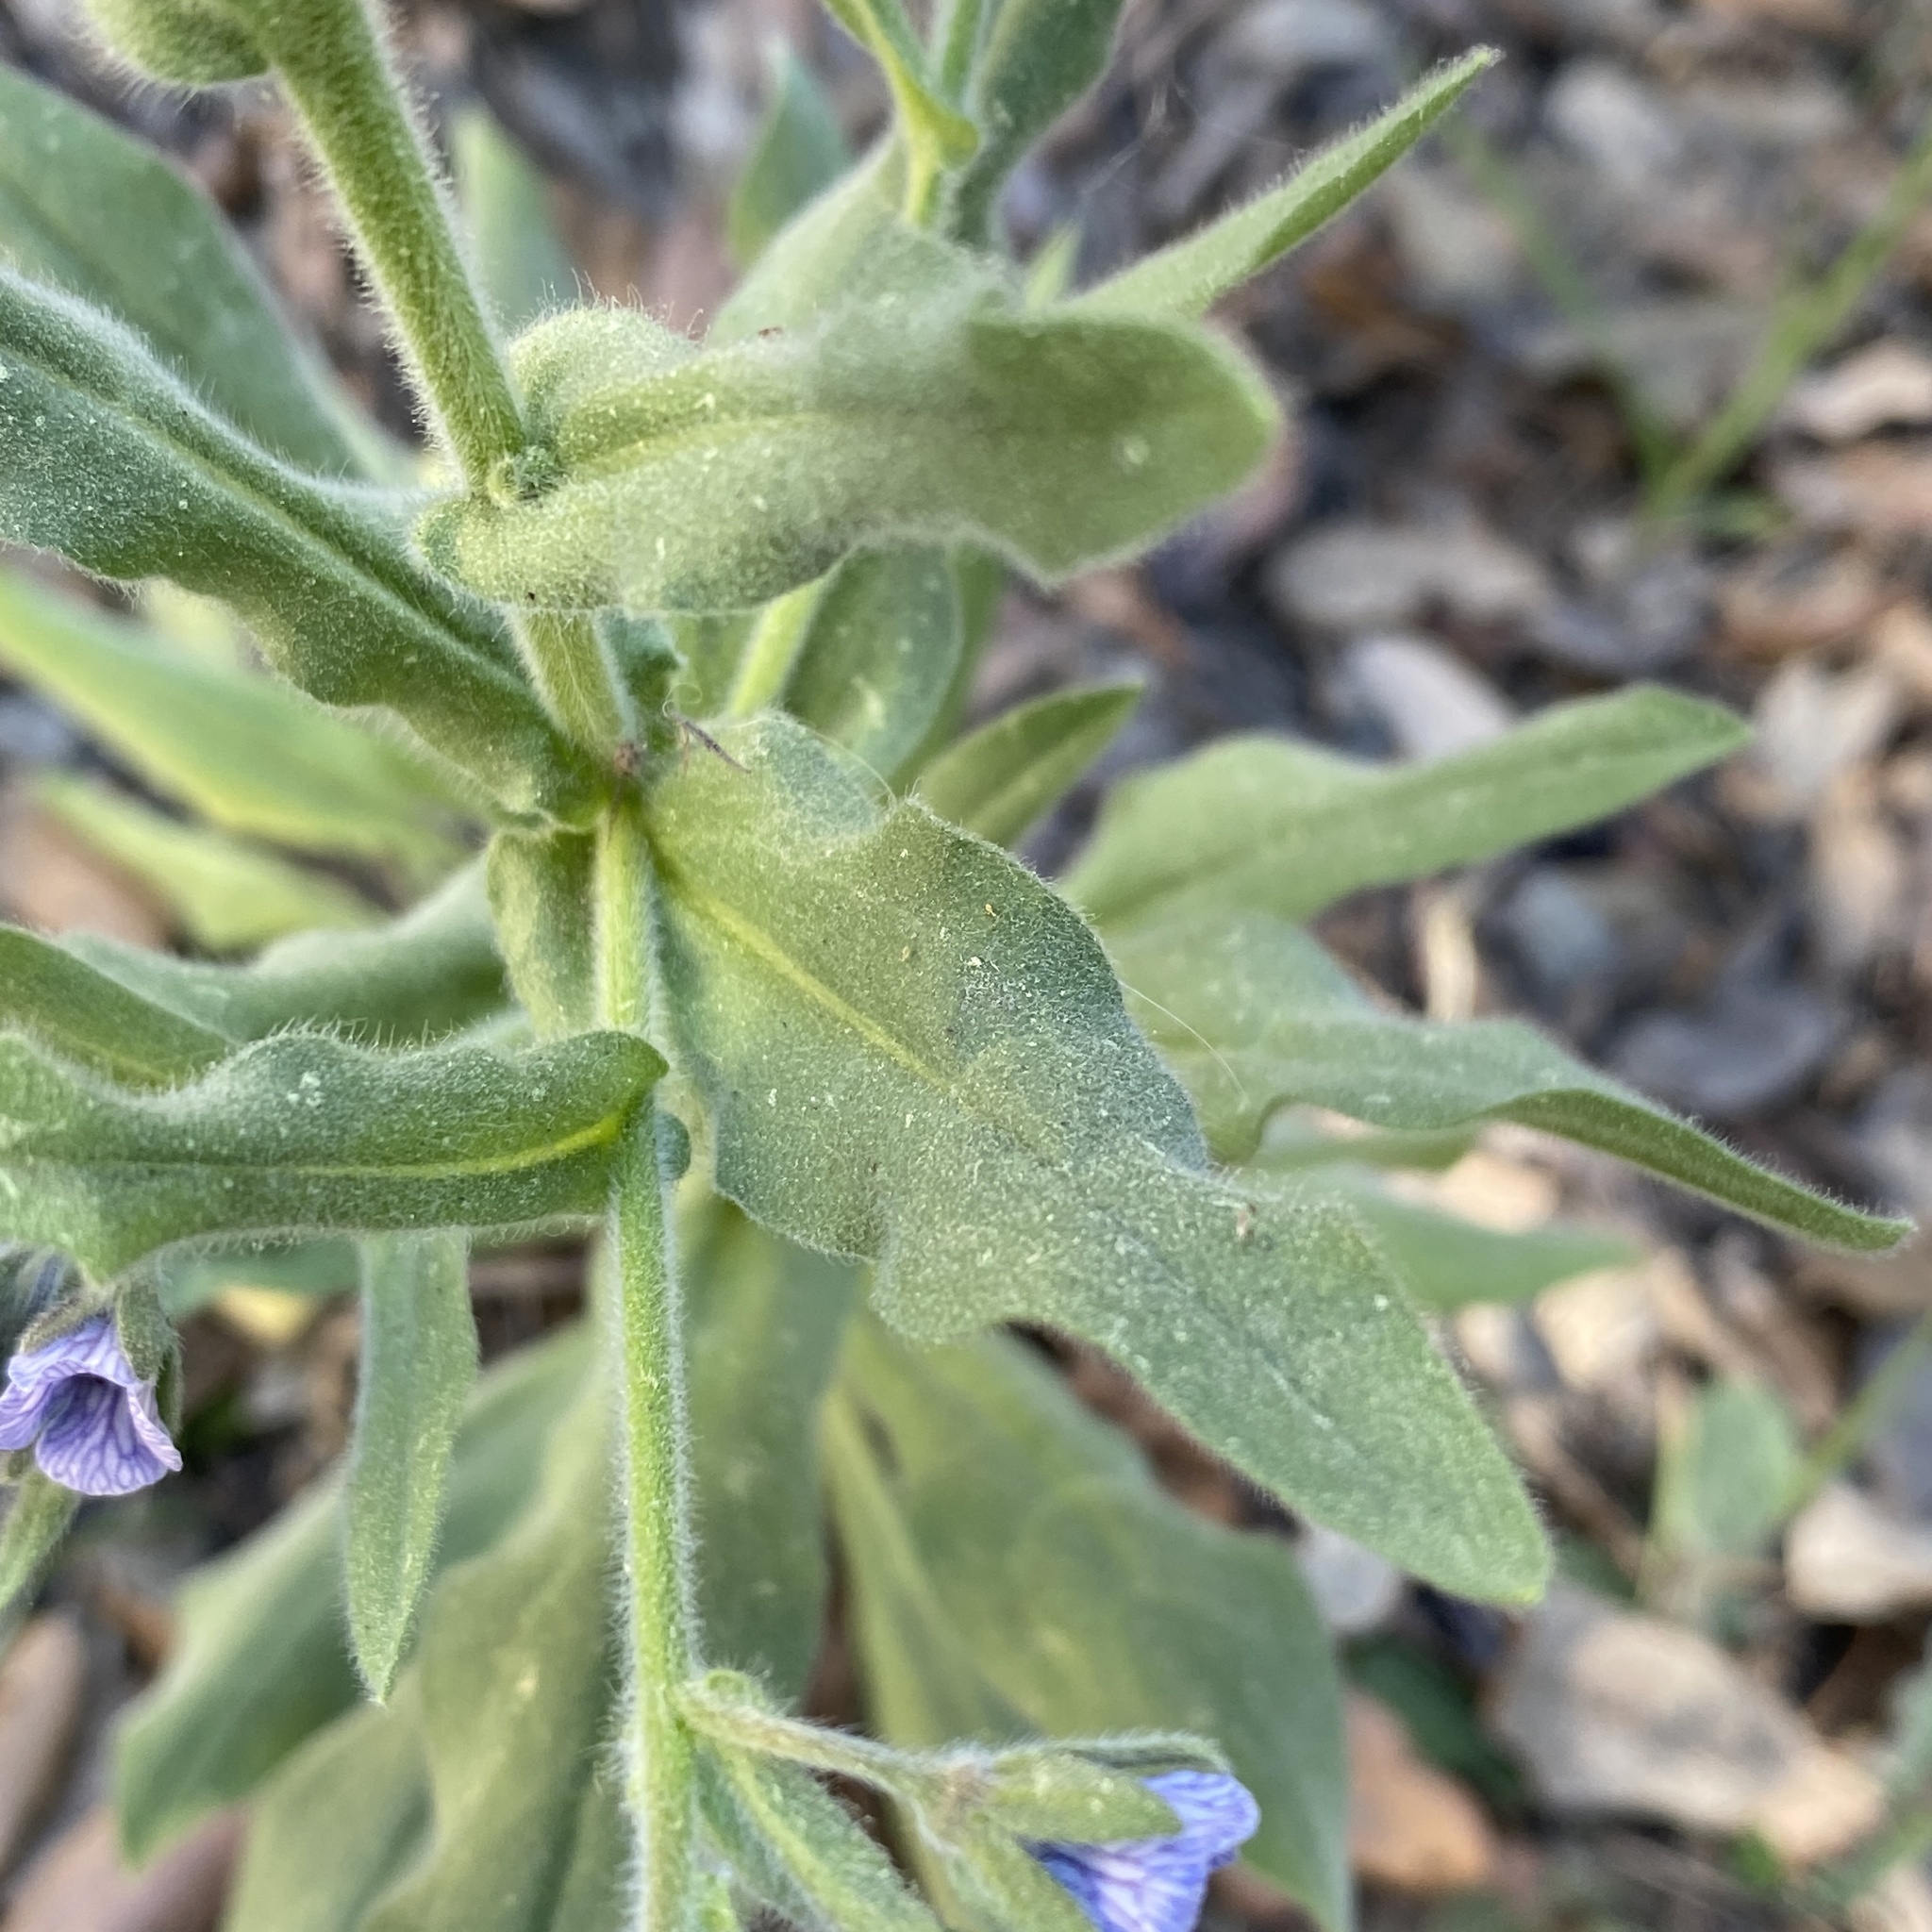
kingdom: Plantae
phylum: Tracheophyta
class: Magnoliopsida
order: Boraginales
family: Boraginaceae
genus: Cynoglossum
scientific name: Cynoglossum creticum
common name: Blue hound's tongue
